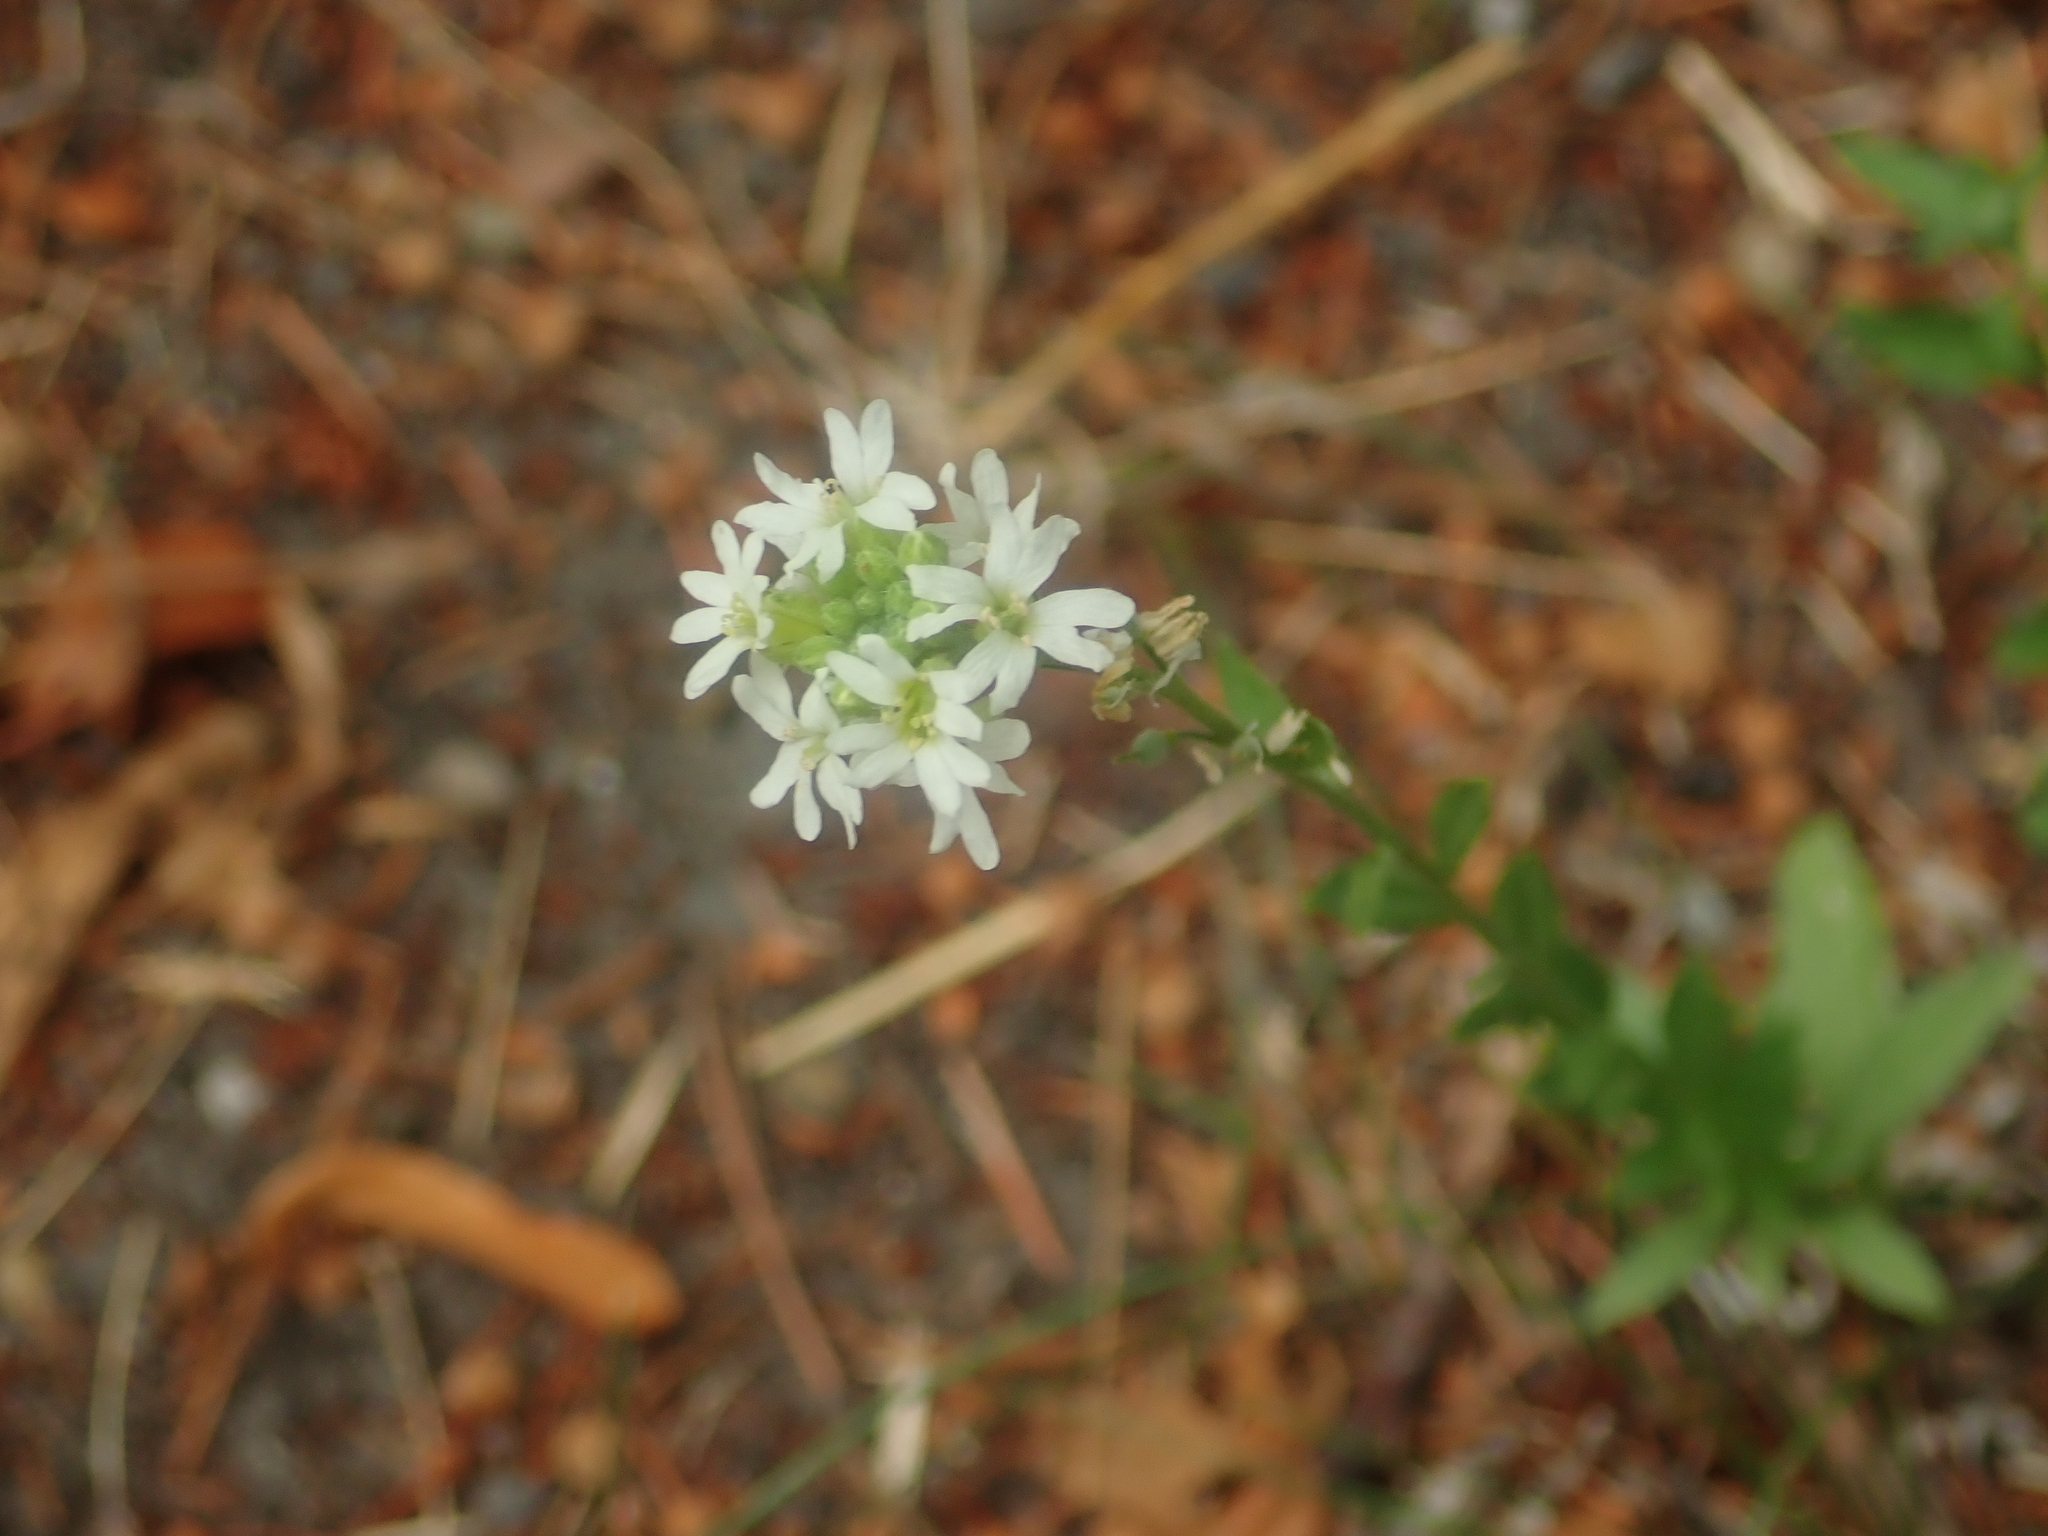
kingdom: Plantae
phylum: Tracheophyta
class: Magnoliopsida
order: Brassicales
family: Brassicaceae
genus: Berteroa
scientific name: Berteroa incana
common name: Hoary alison
